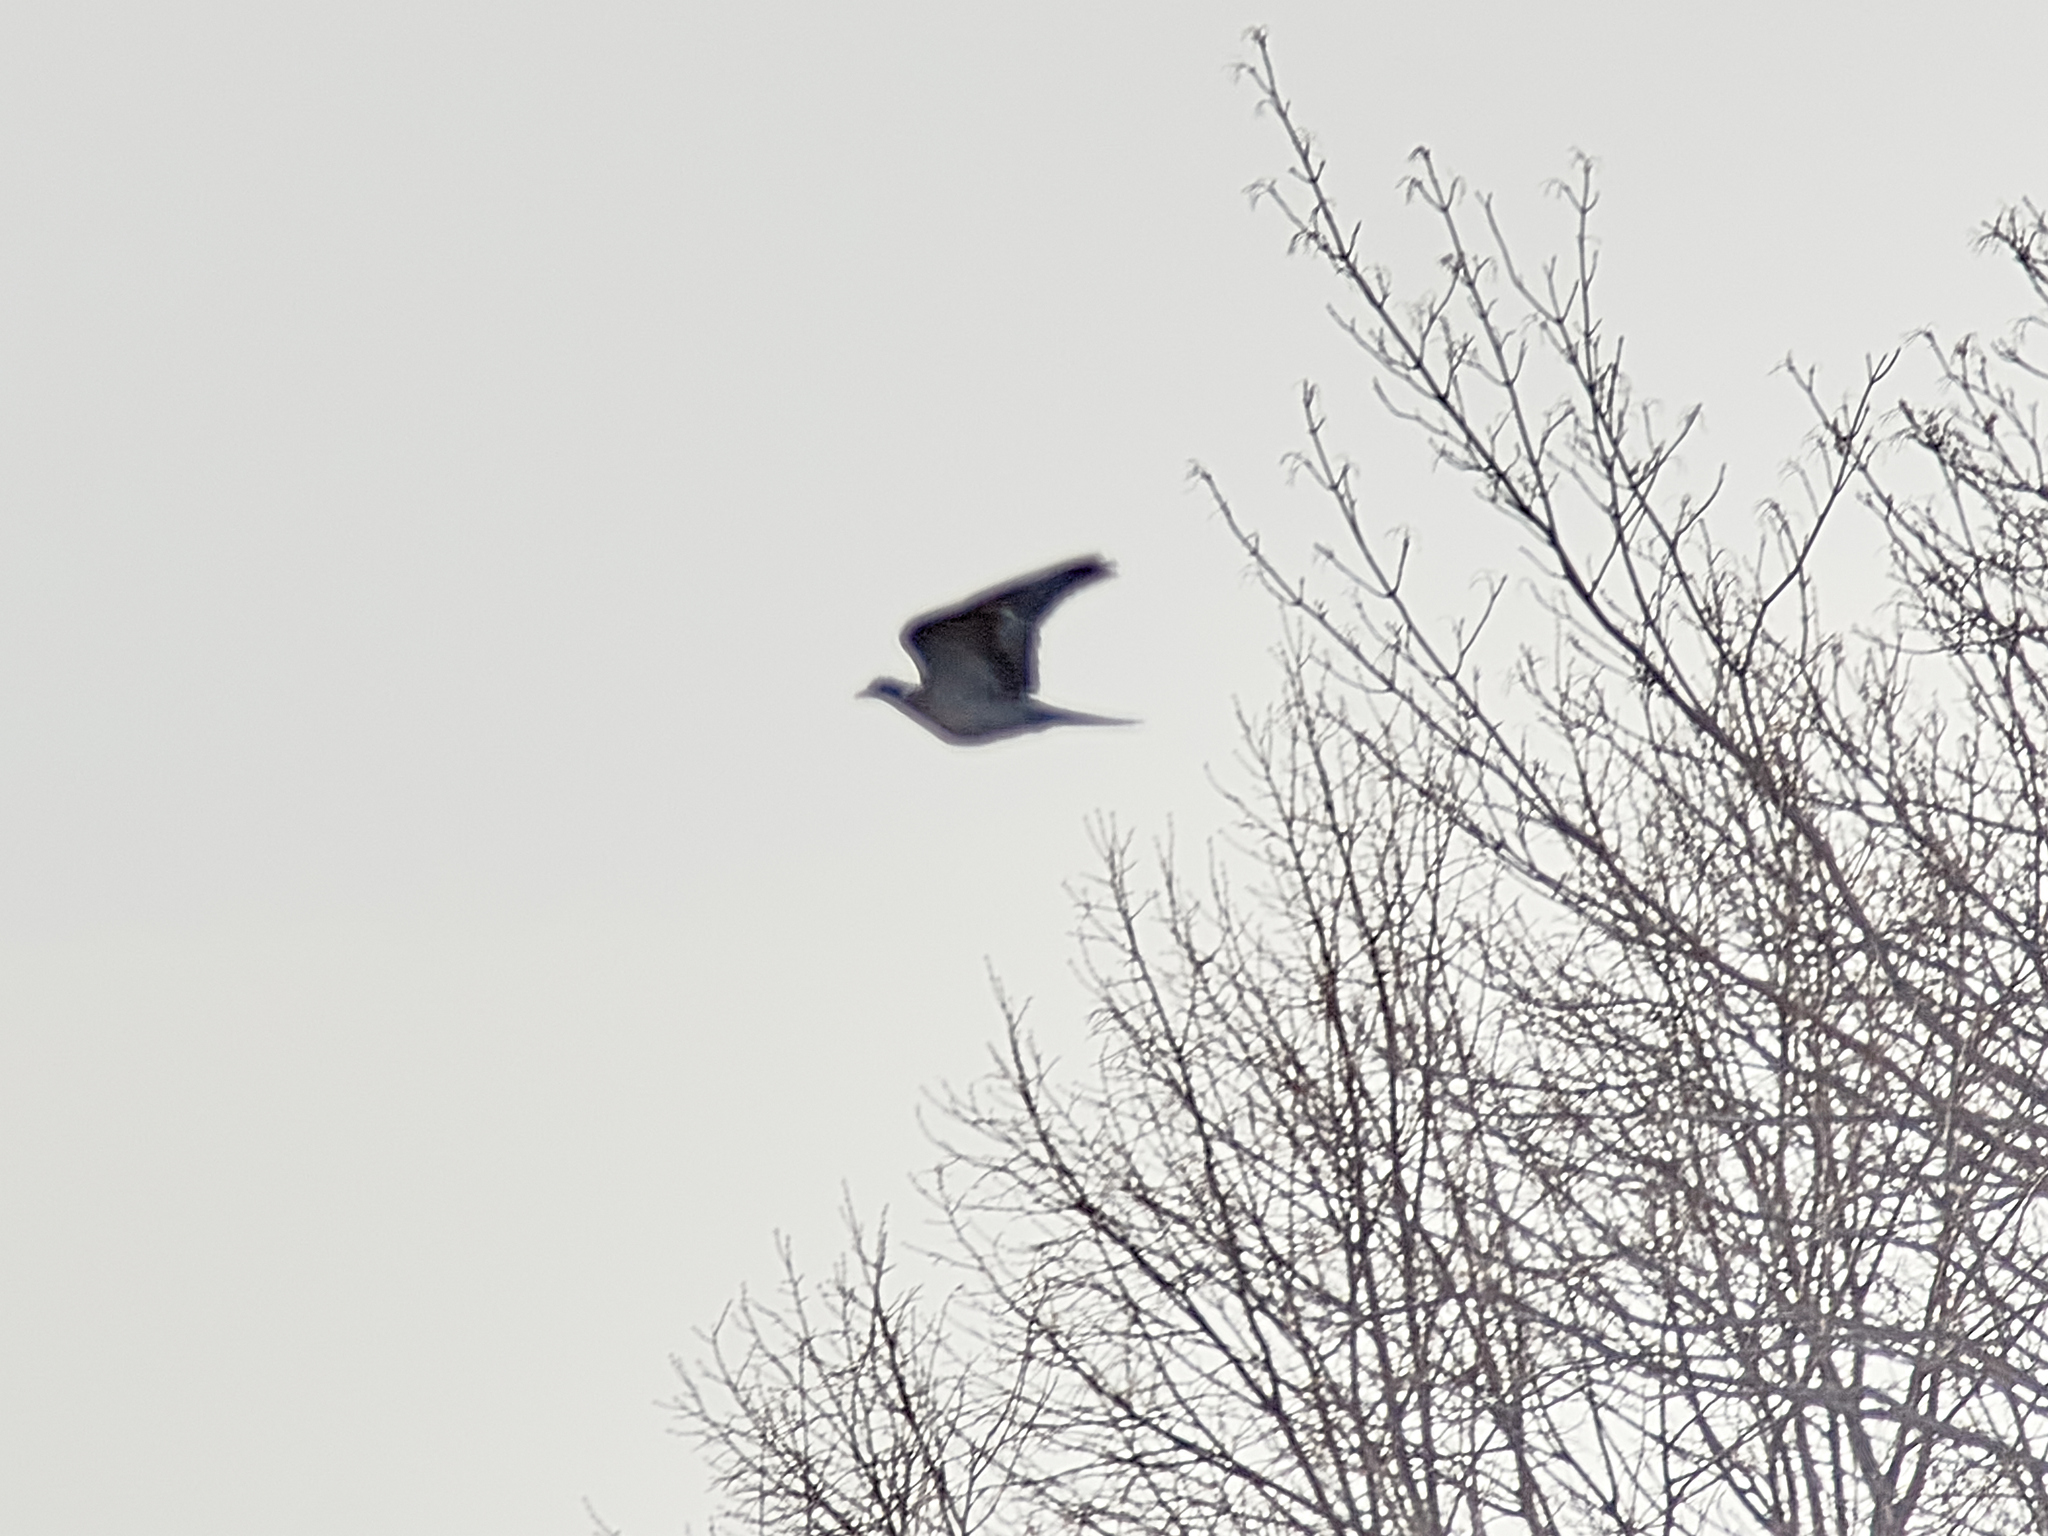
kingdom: Animalia
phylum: Chordata
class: Aves
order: Columbiformes
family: Columbidae
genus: Columba
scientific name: Columba palumbus
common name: Common wood pigeon
